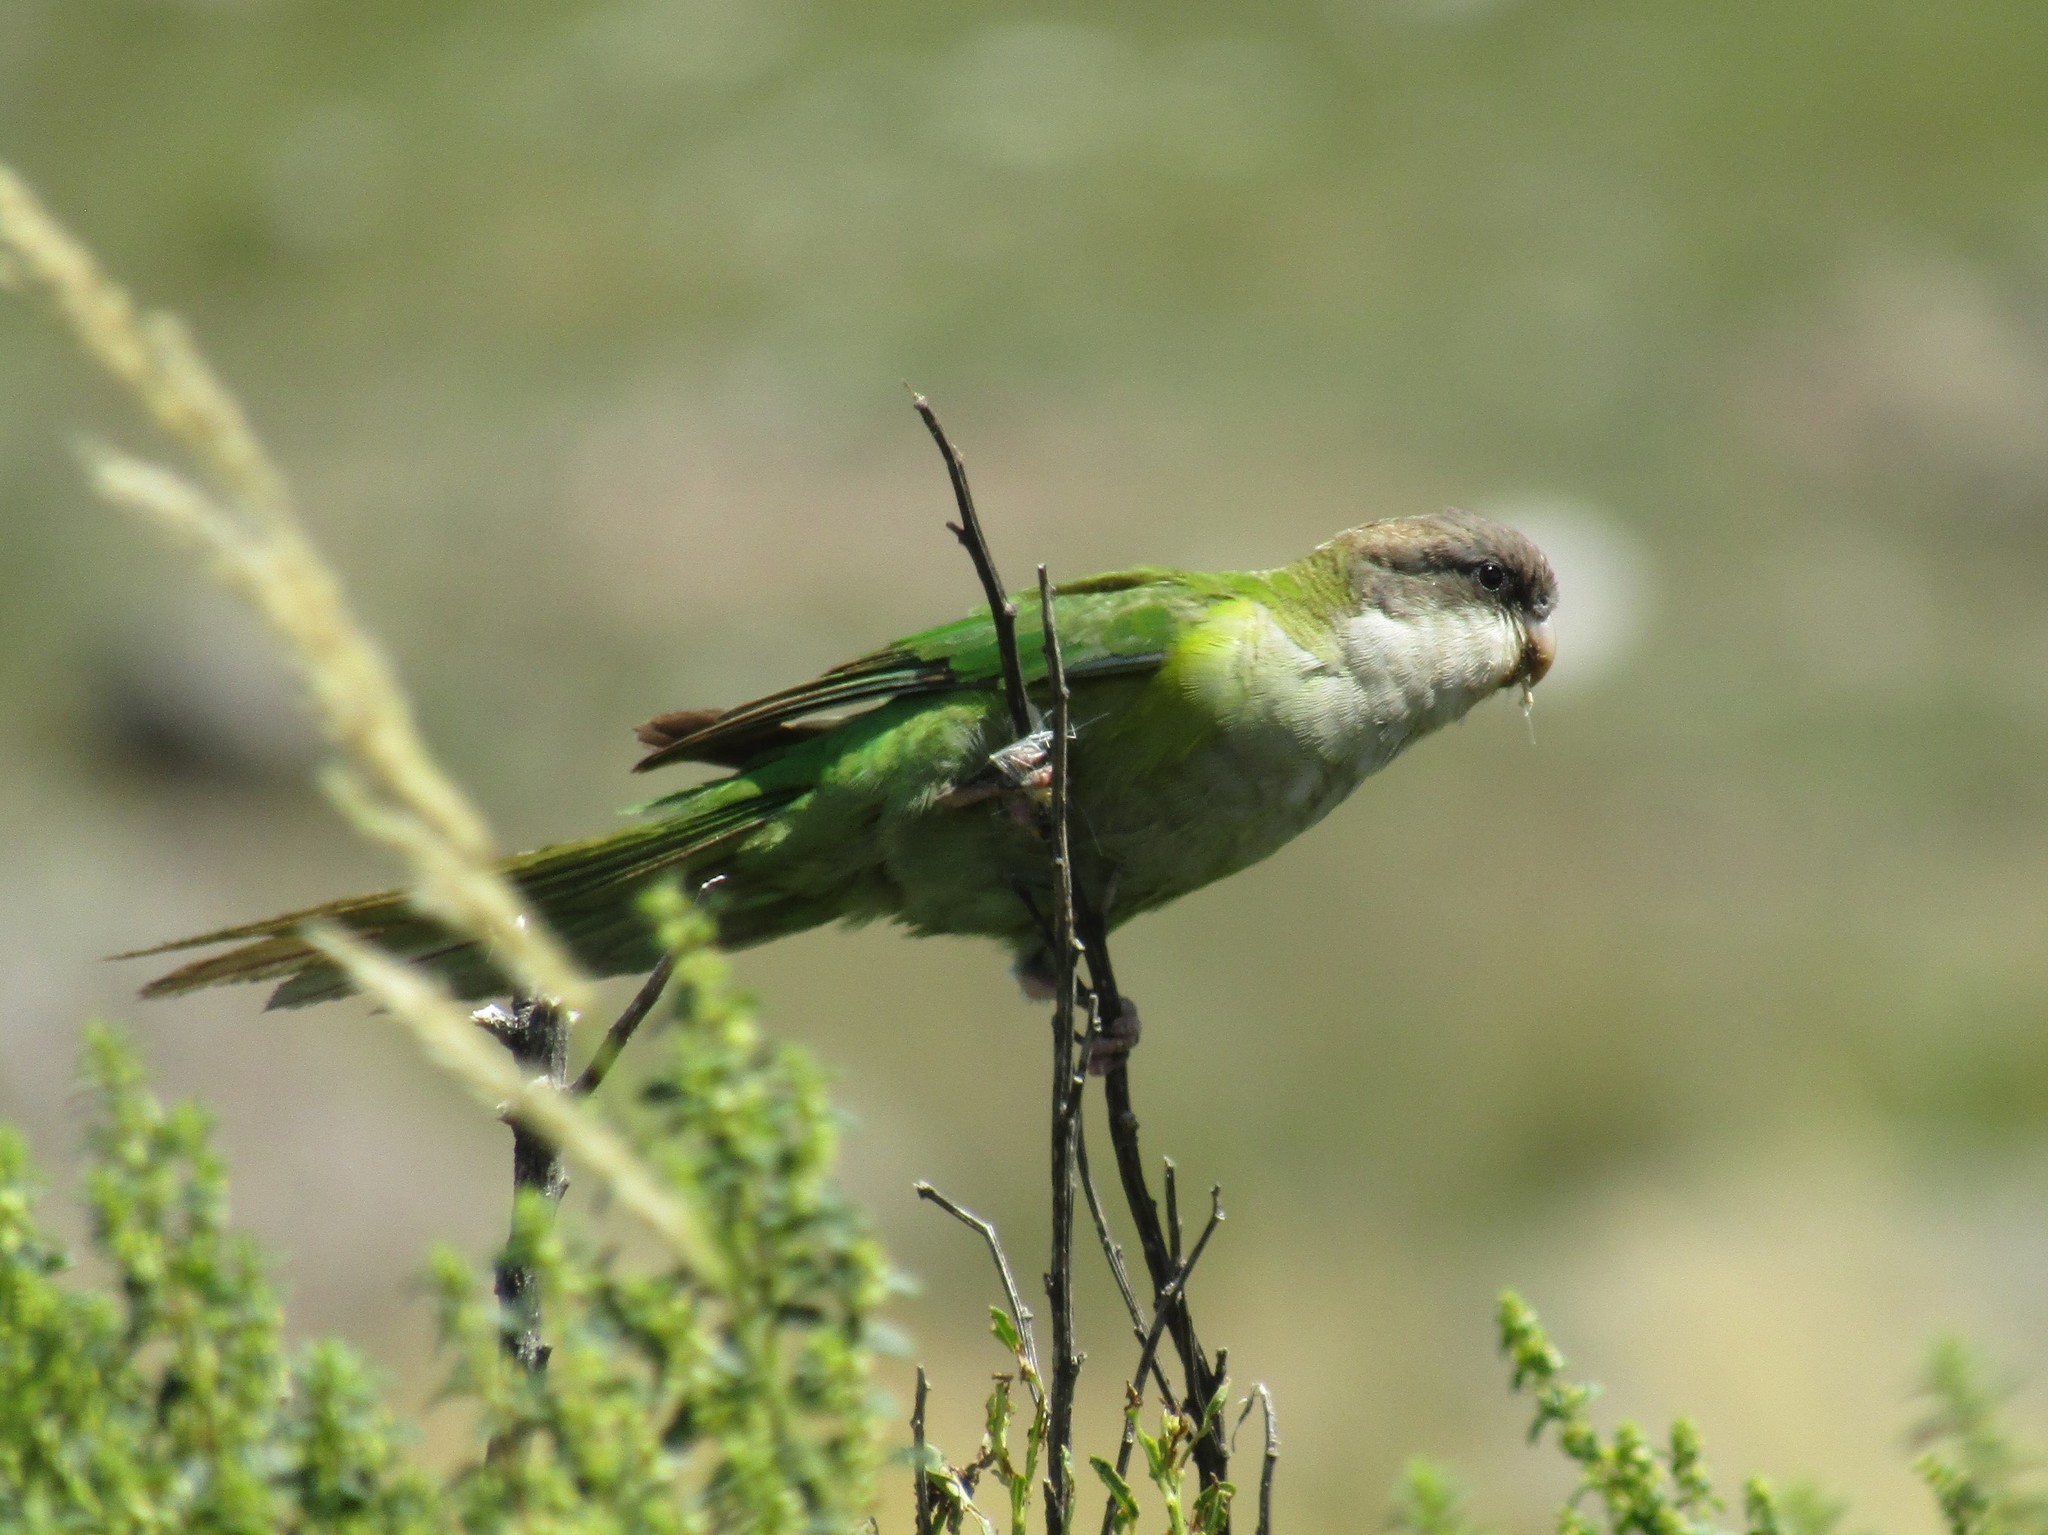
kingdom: Animalia
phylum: Chordata
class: Aves
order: Psittaciformes
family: Psittacidae
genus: Psilopsiagon
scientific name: Psilopsiagon aymara
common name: Grey-hooded parakeet
